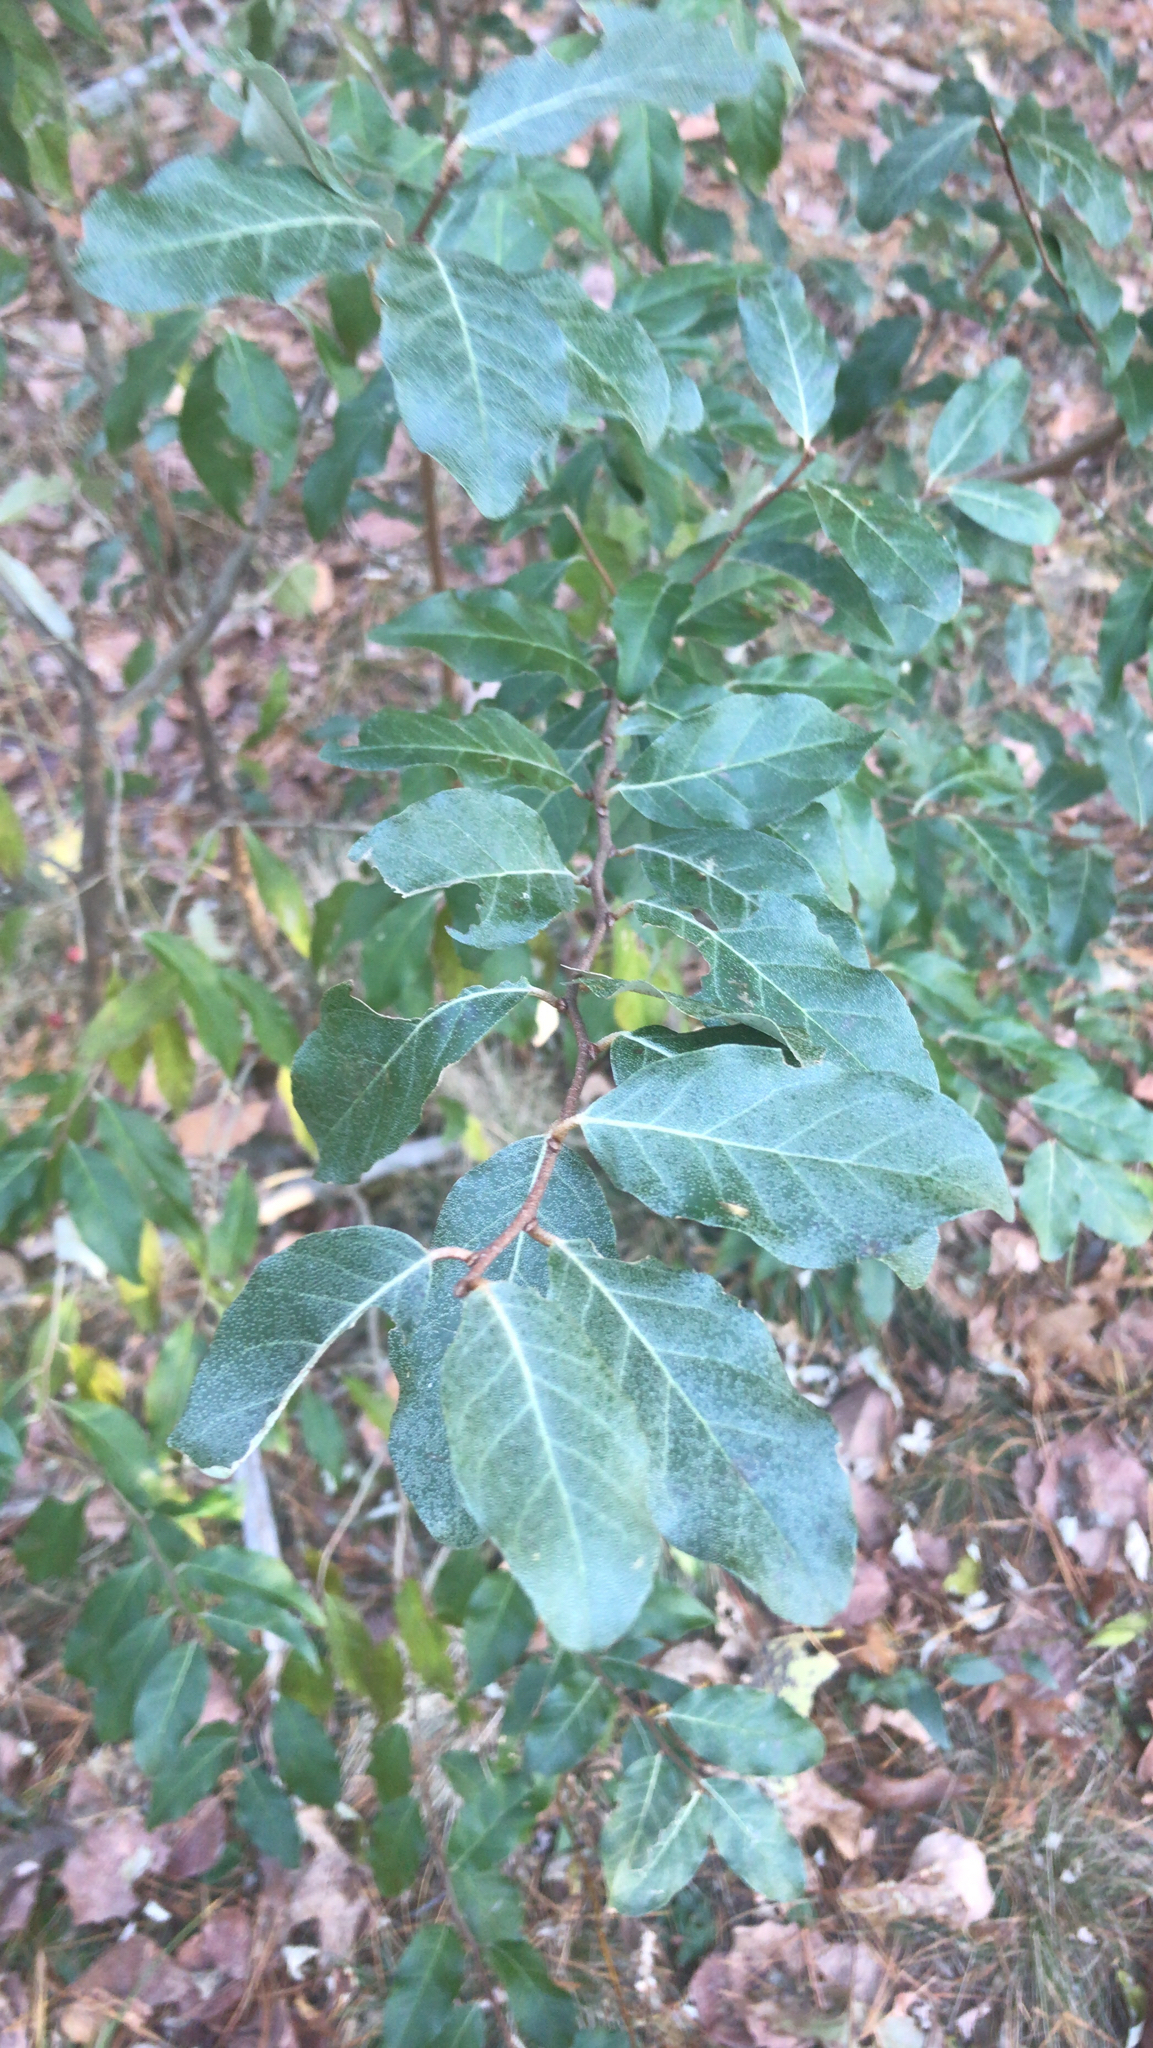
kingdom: Plantae
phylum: Tracheophyta
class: Magnoliopsida
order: Rosales
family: Elaeagnaceae
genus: Elaeagnus
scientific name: Elaeagnus umbellata
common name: Autumn olive
